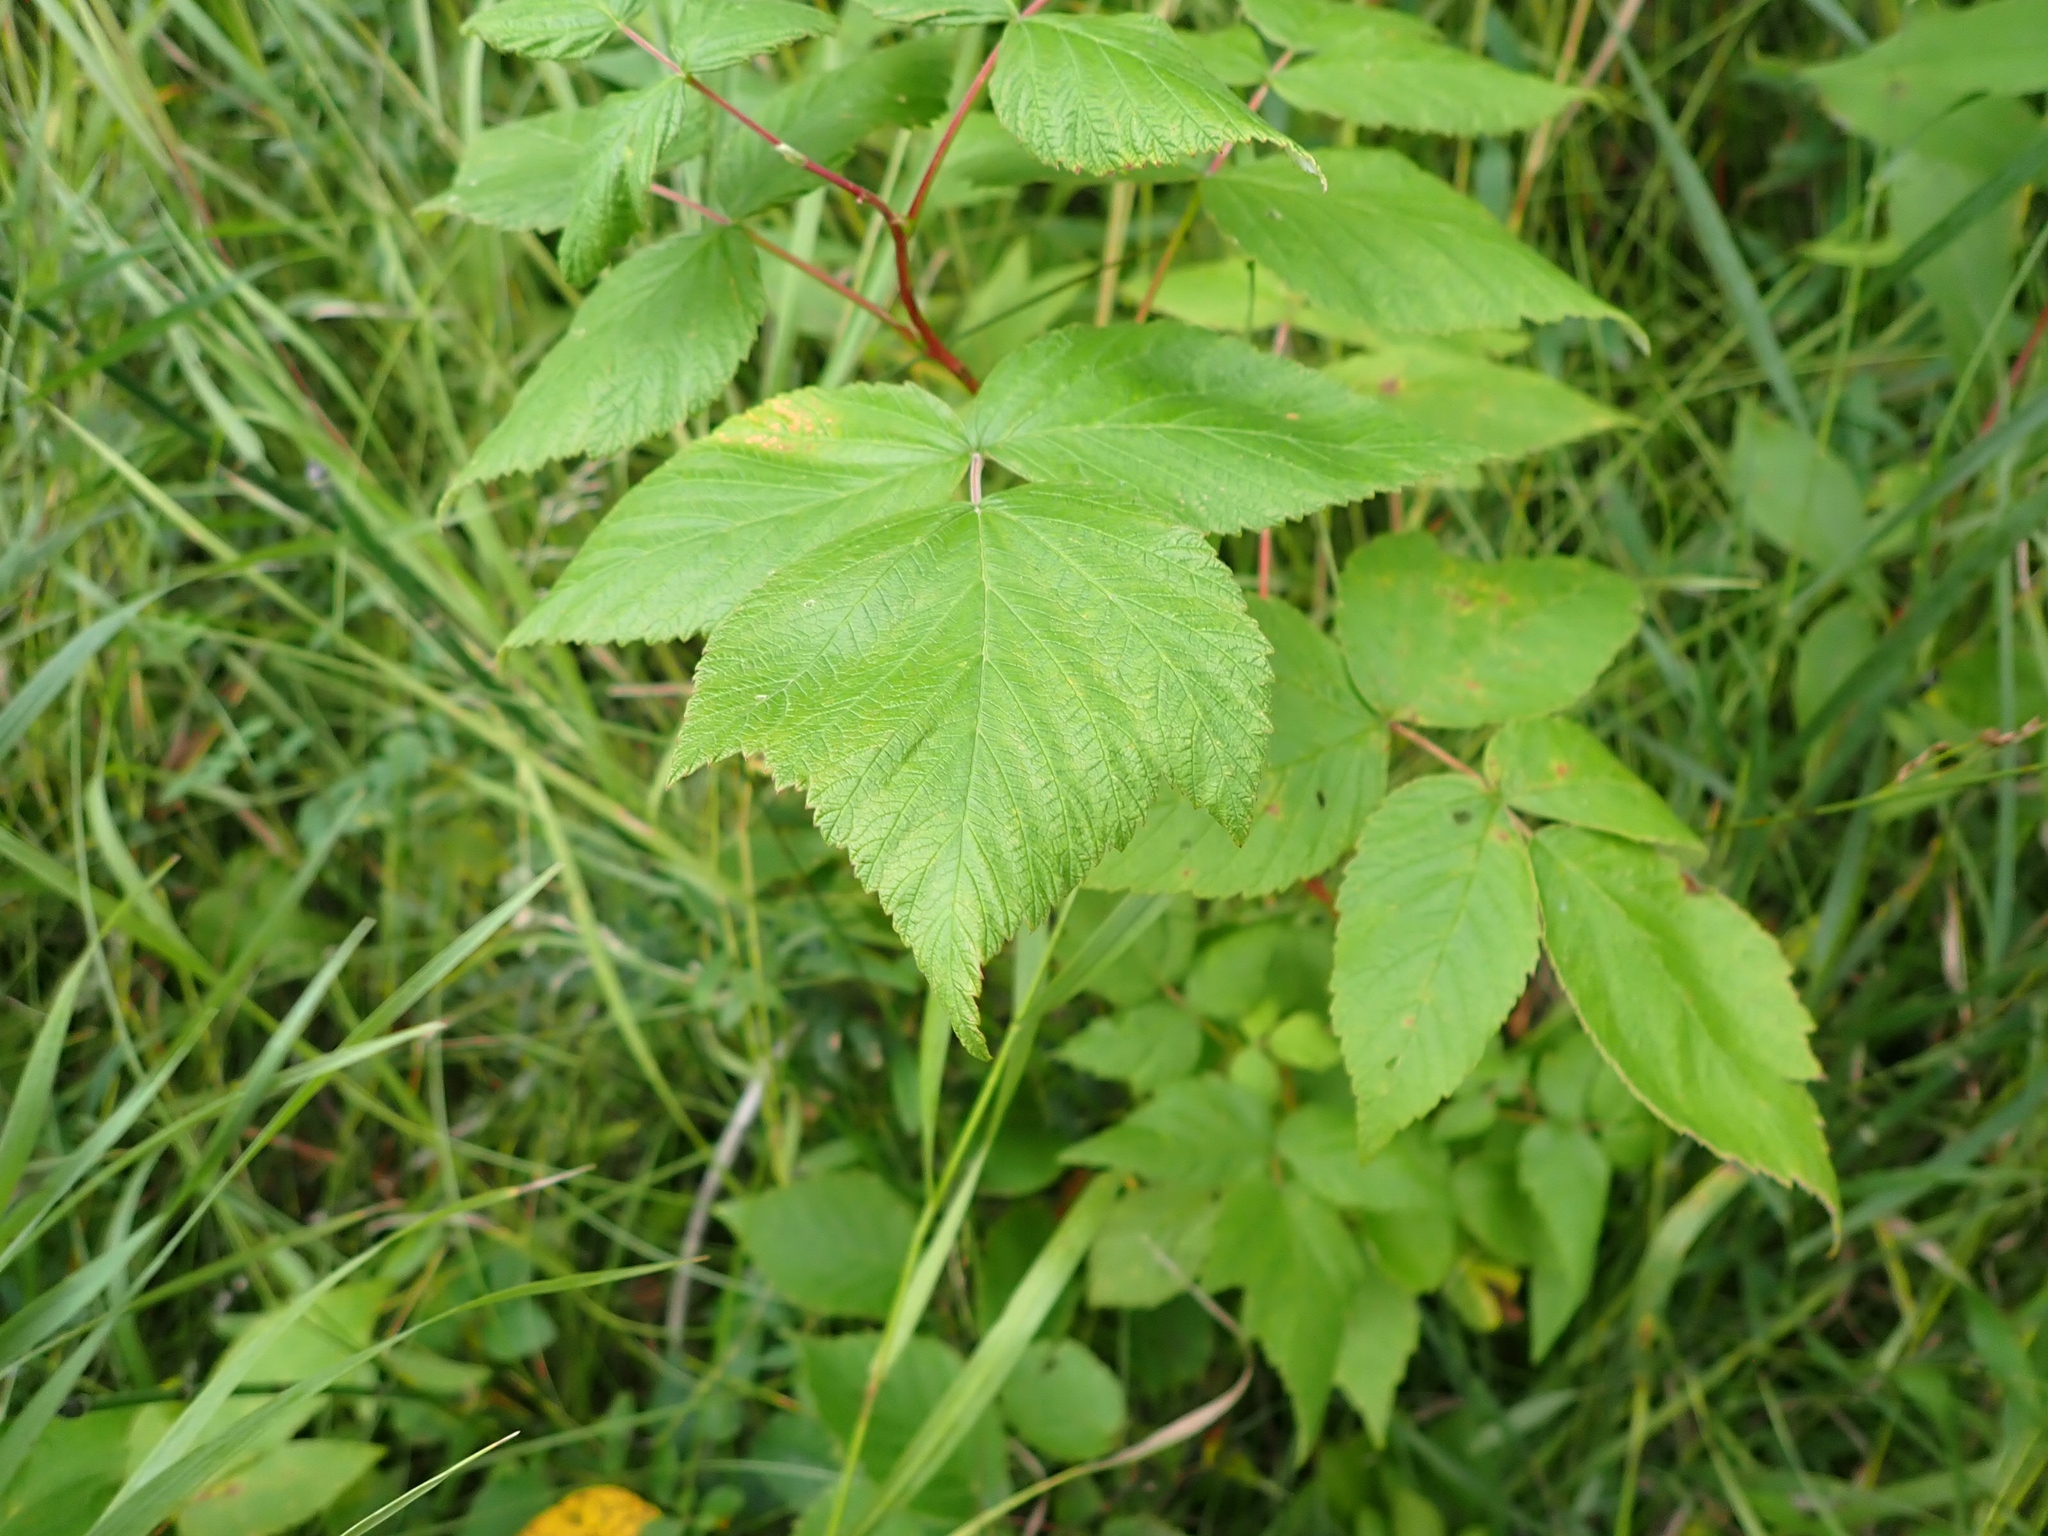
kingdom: Plantae
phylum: Tracheophyta
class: Magnoliopsida
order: Rosales
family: Rosaceae
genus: Rubus
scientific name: Rubus idaeus
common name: Raspberry
